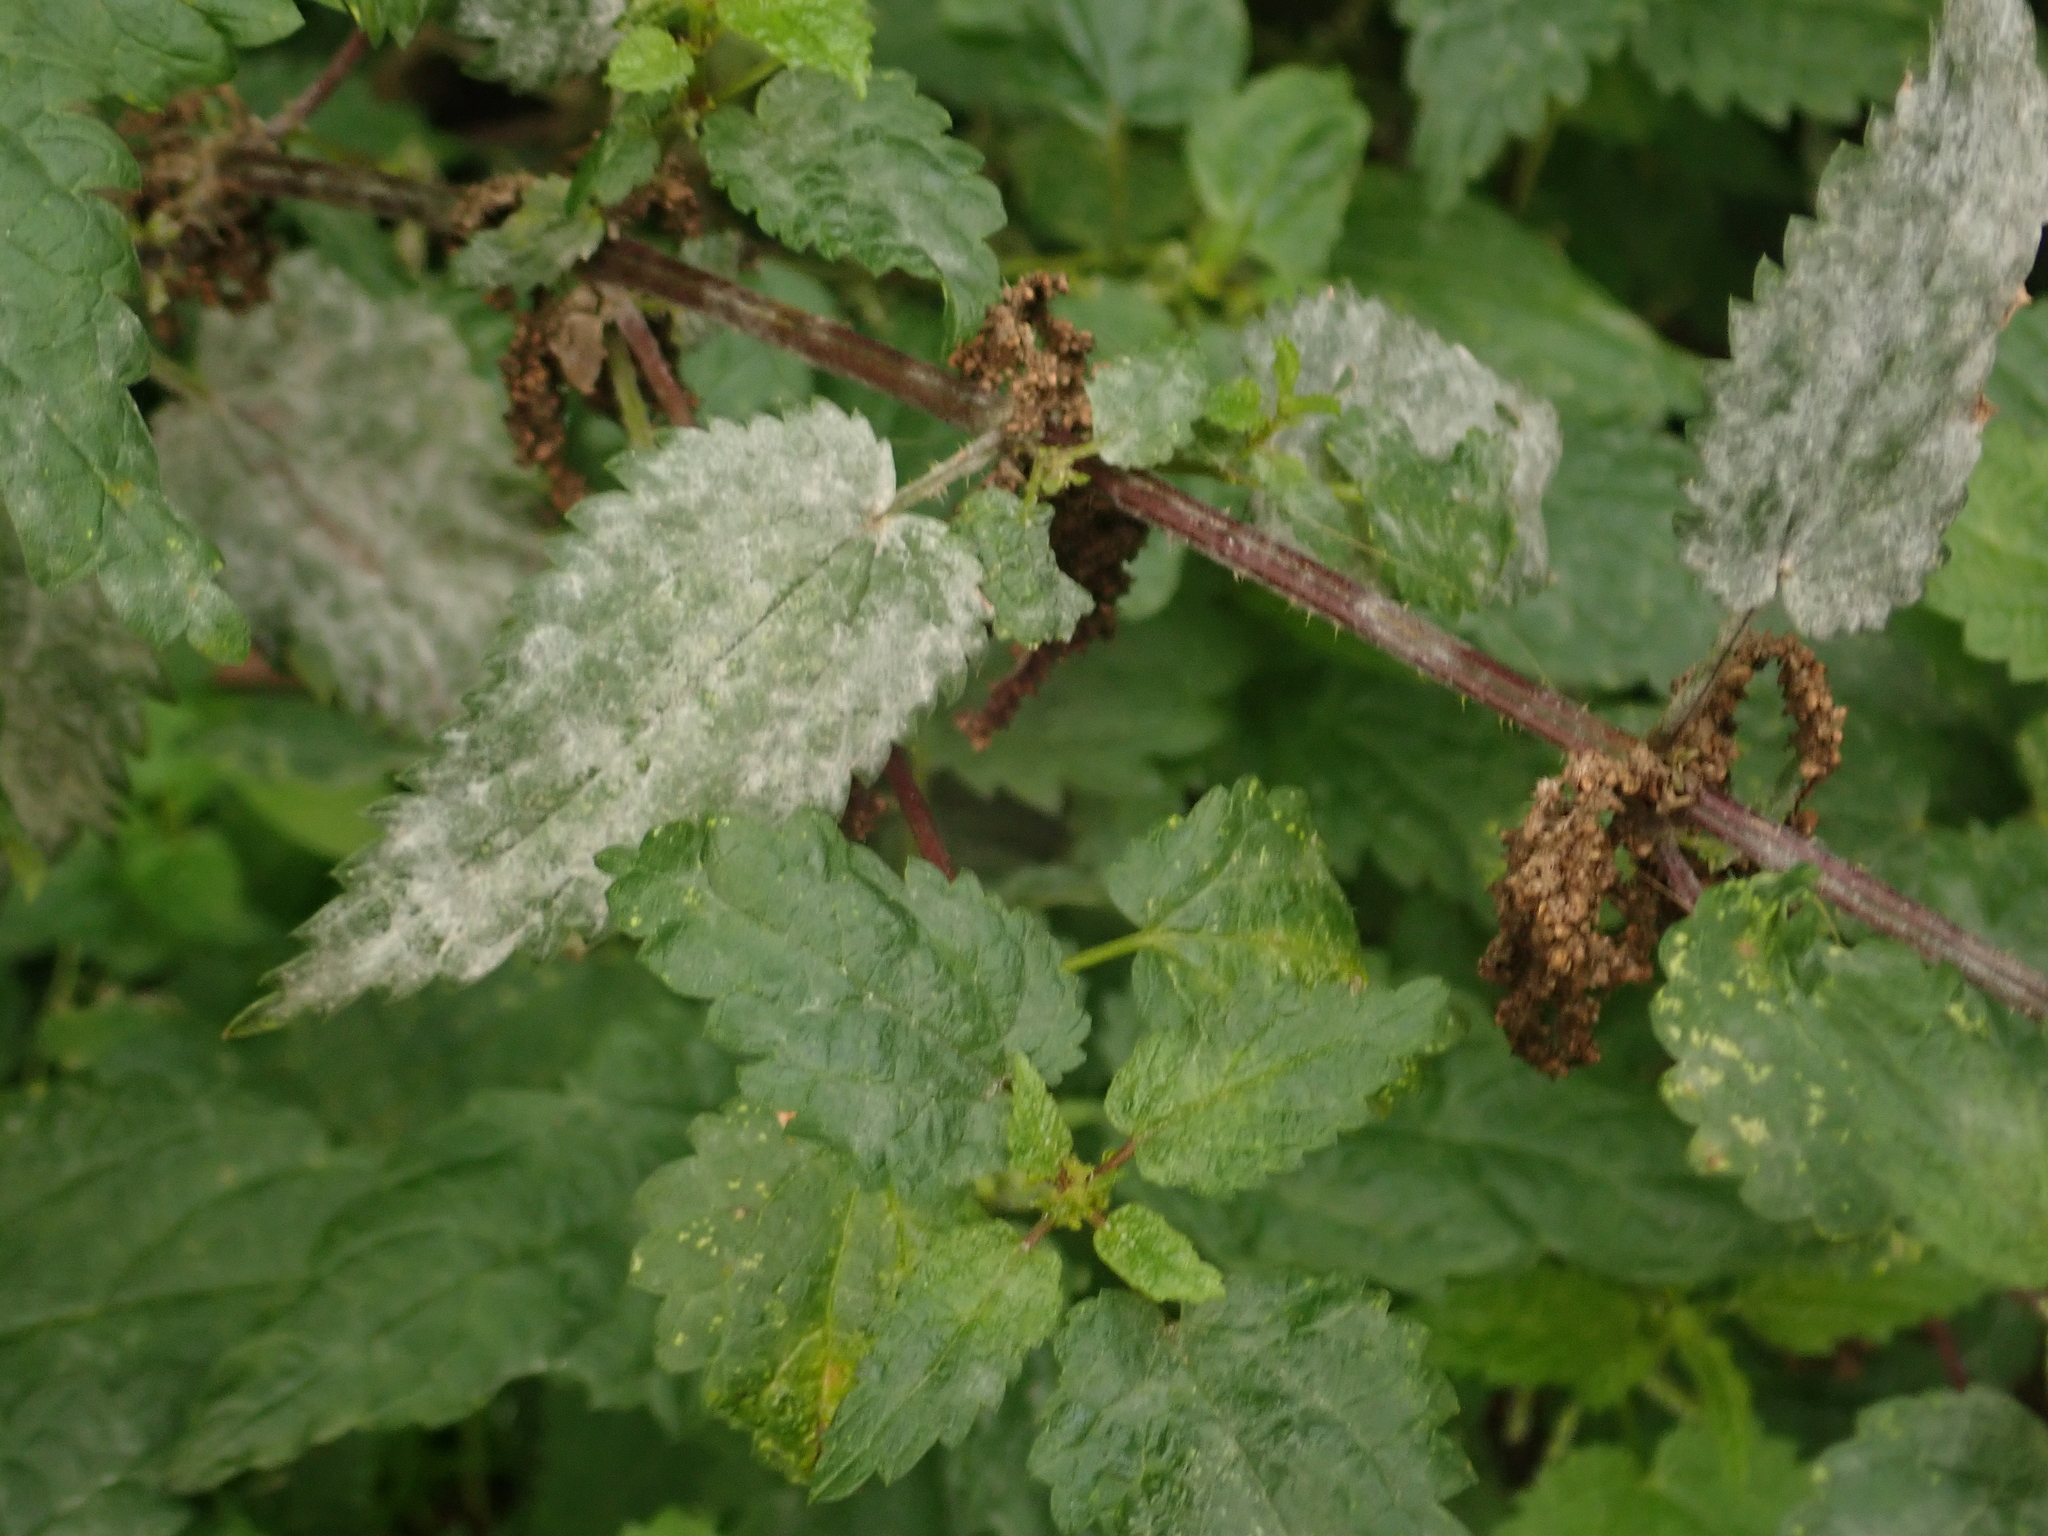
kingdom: Plantae
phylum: Tracheophyta
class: Magnoliopsida
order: Rosales
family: Urticaceae
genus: Urtica
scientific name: Urtica dioica
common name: Common nettle
